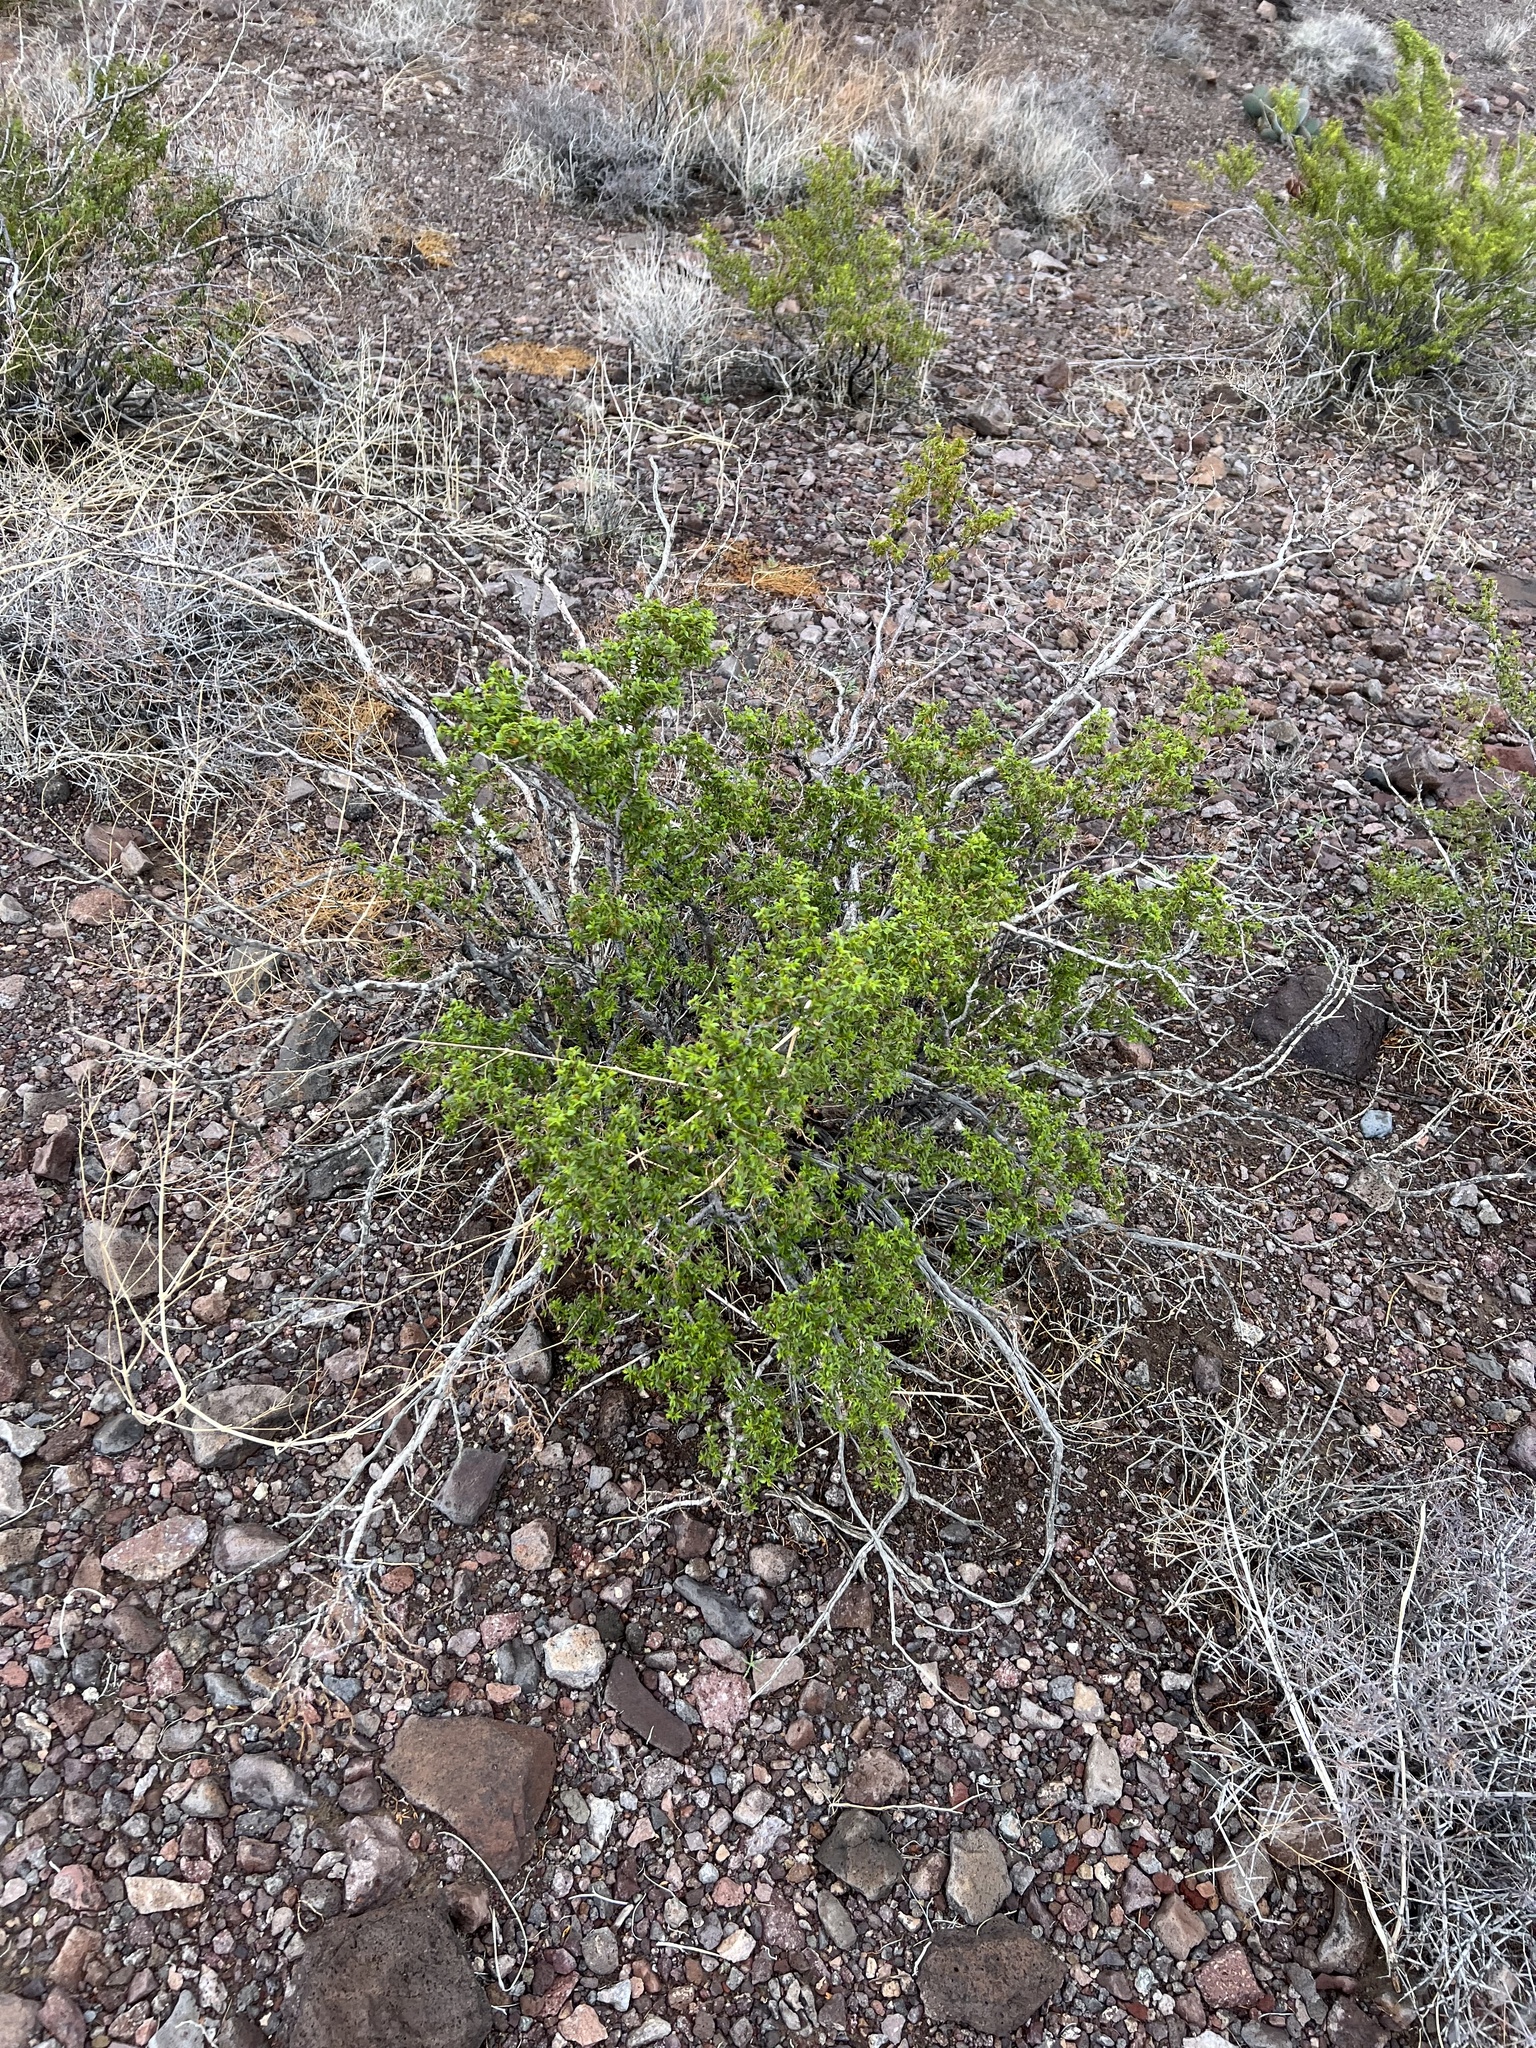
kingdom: Plantae
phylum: Tracheophyta
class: Magnoliopsida
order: Zygophyllales
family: Zygophyllaceae
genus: Larrea
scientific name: Larrea tridentata
